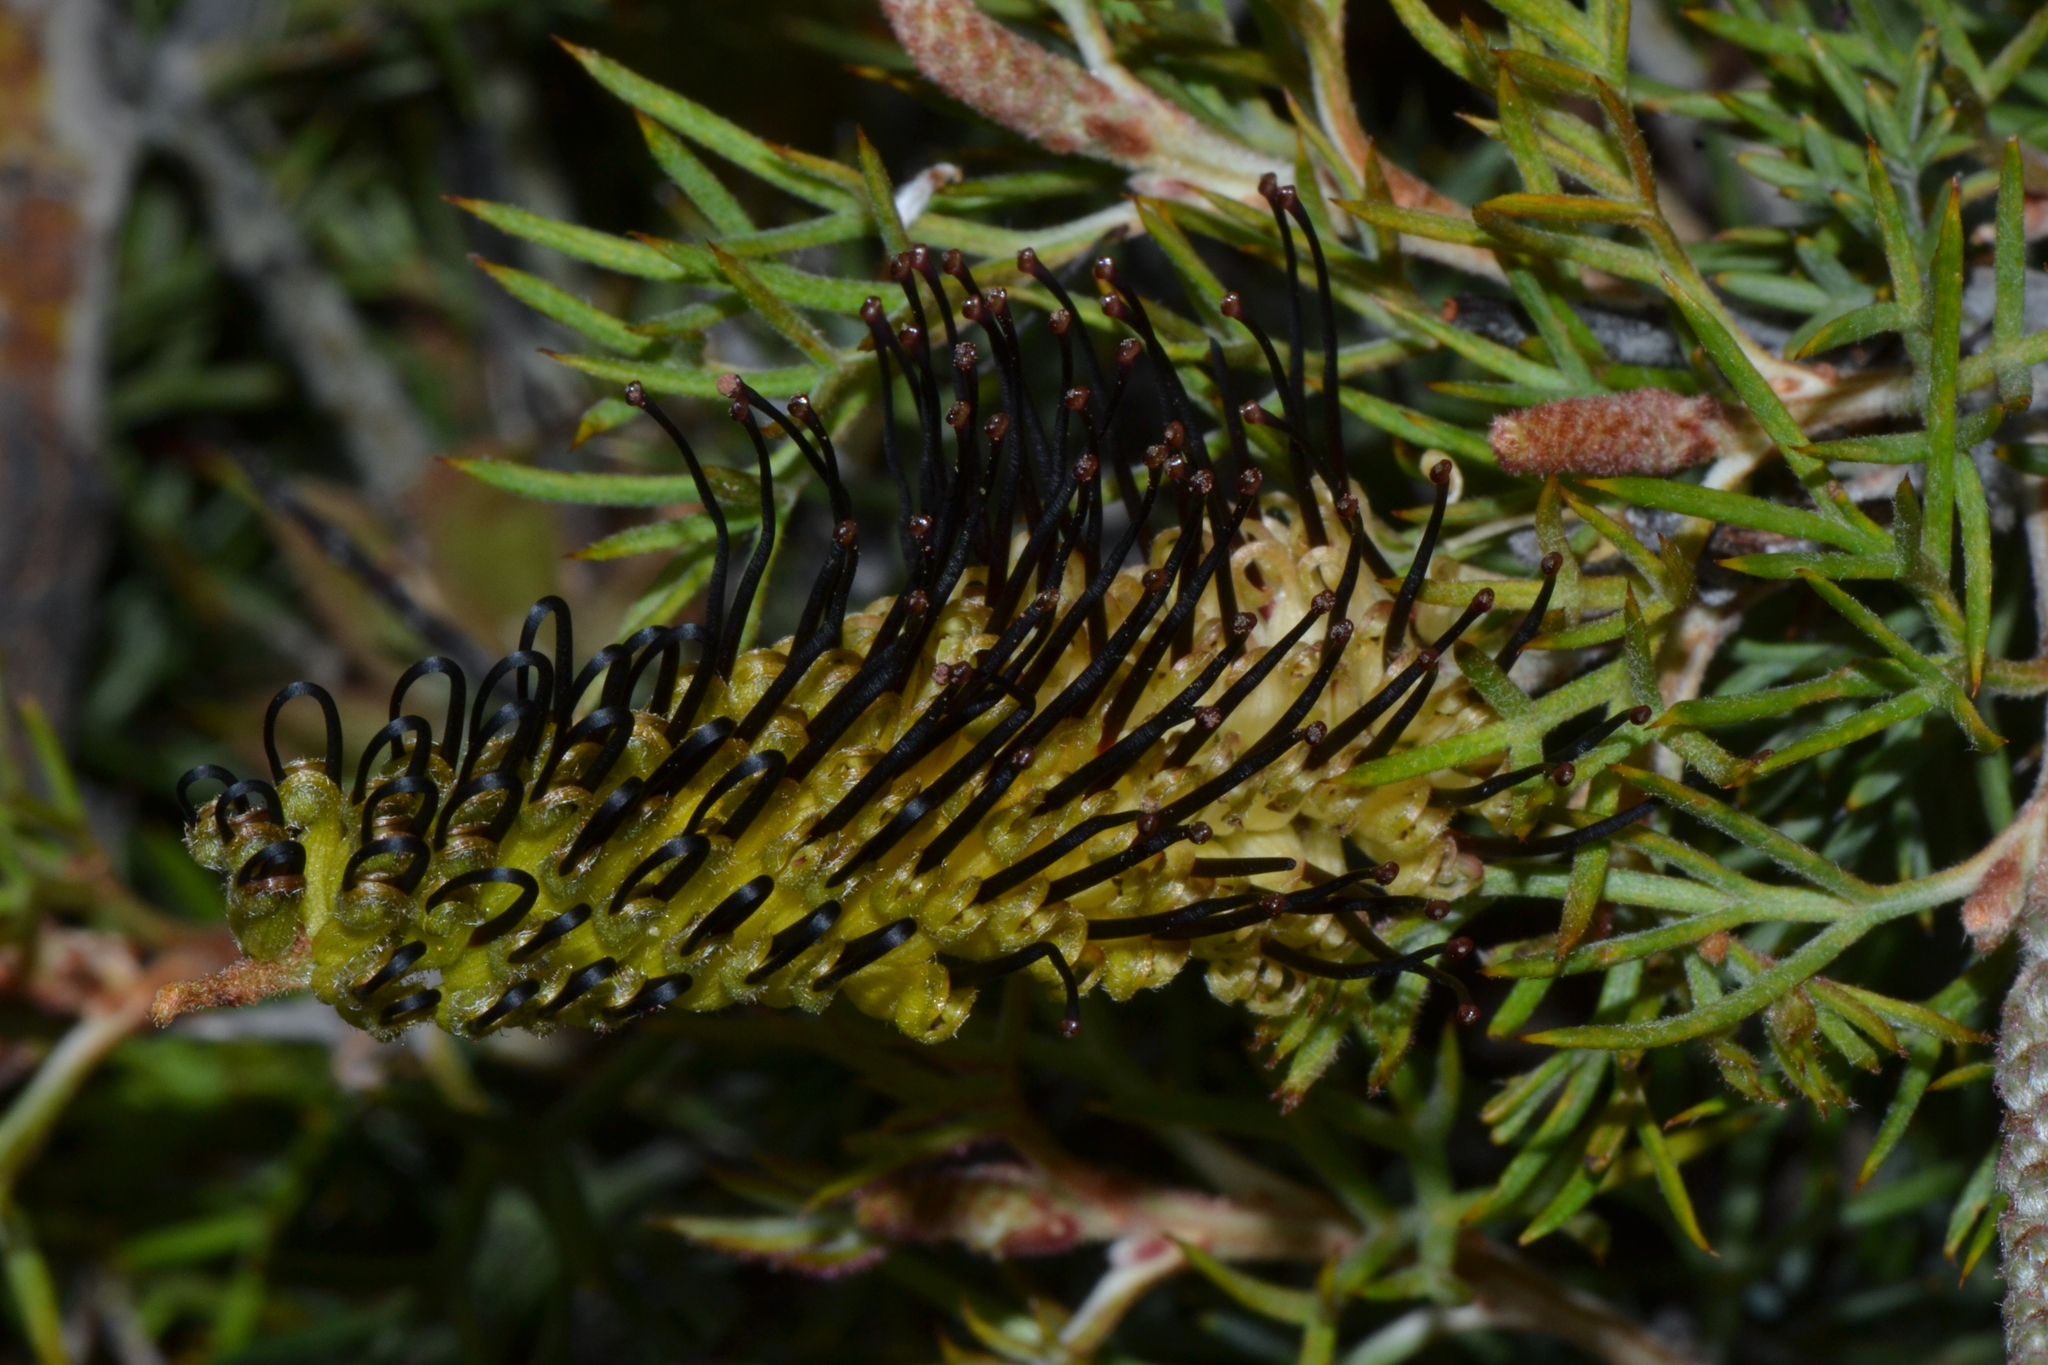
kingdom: Plantae
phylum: Tracheophyta
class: Magnoliopsida
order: Proteales
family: Proteaceae
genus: Grevillea
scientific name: Grevillea armigera
